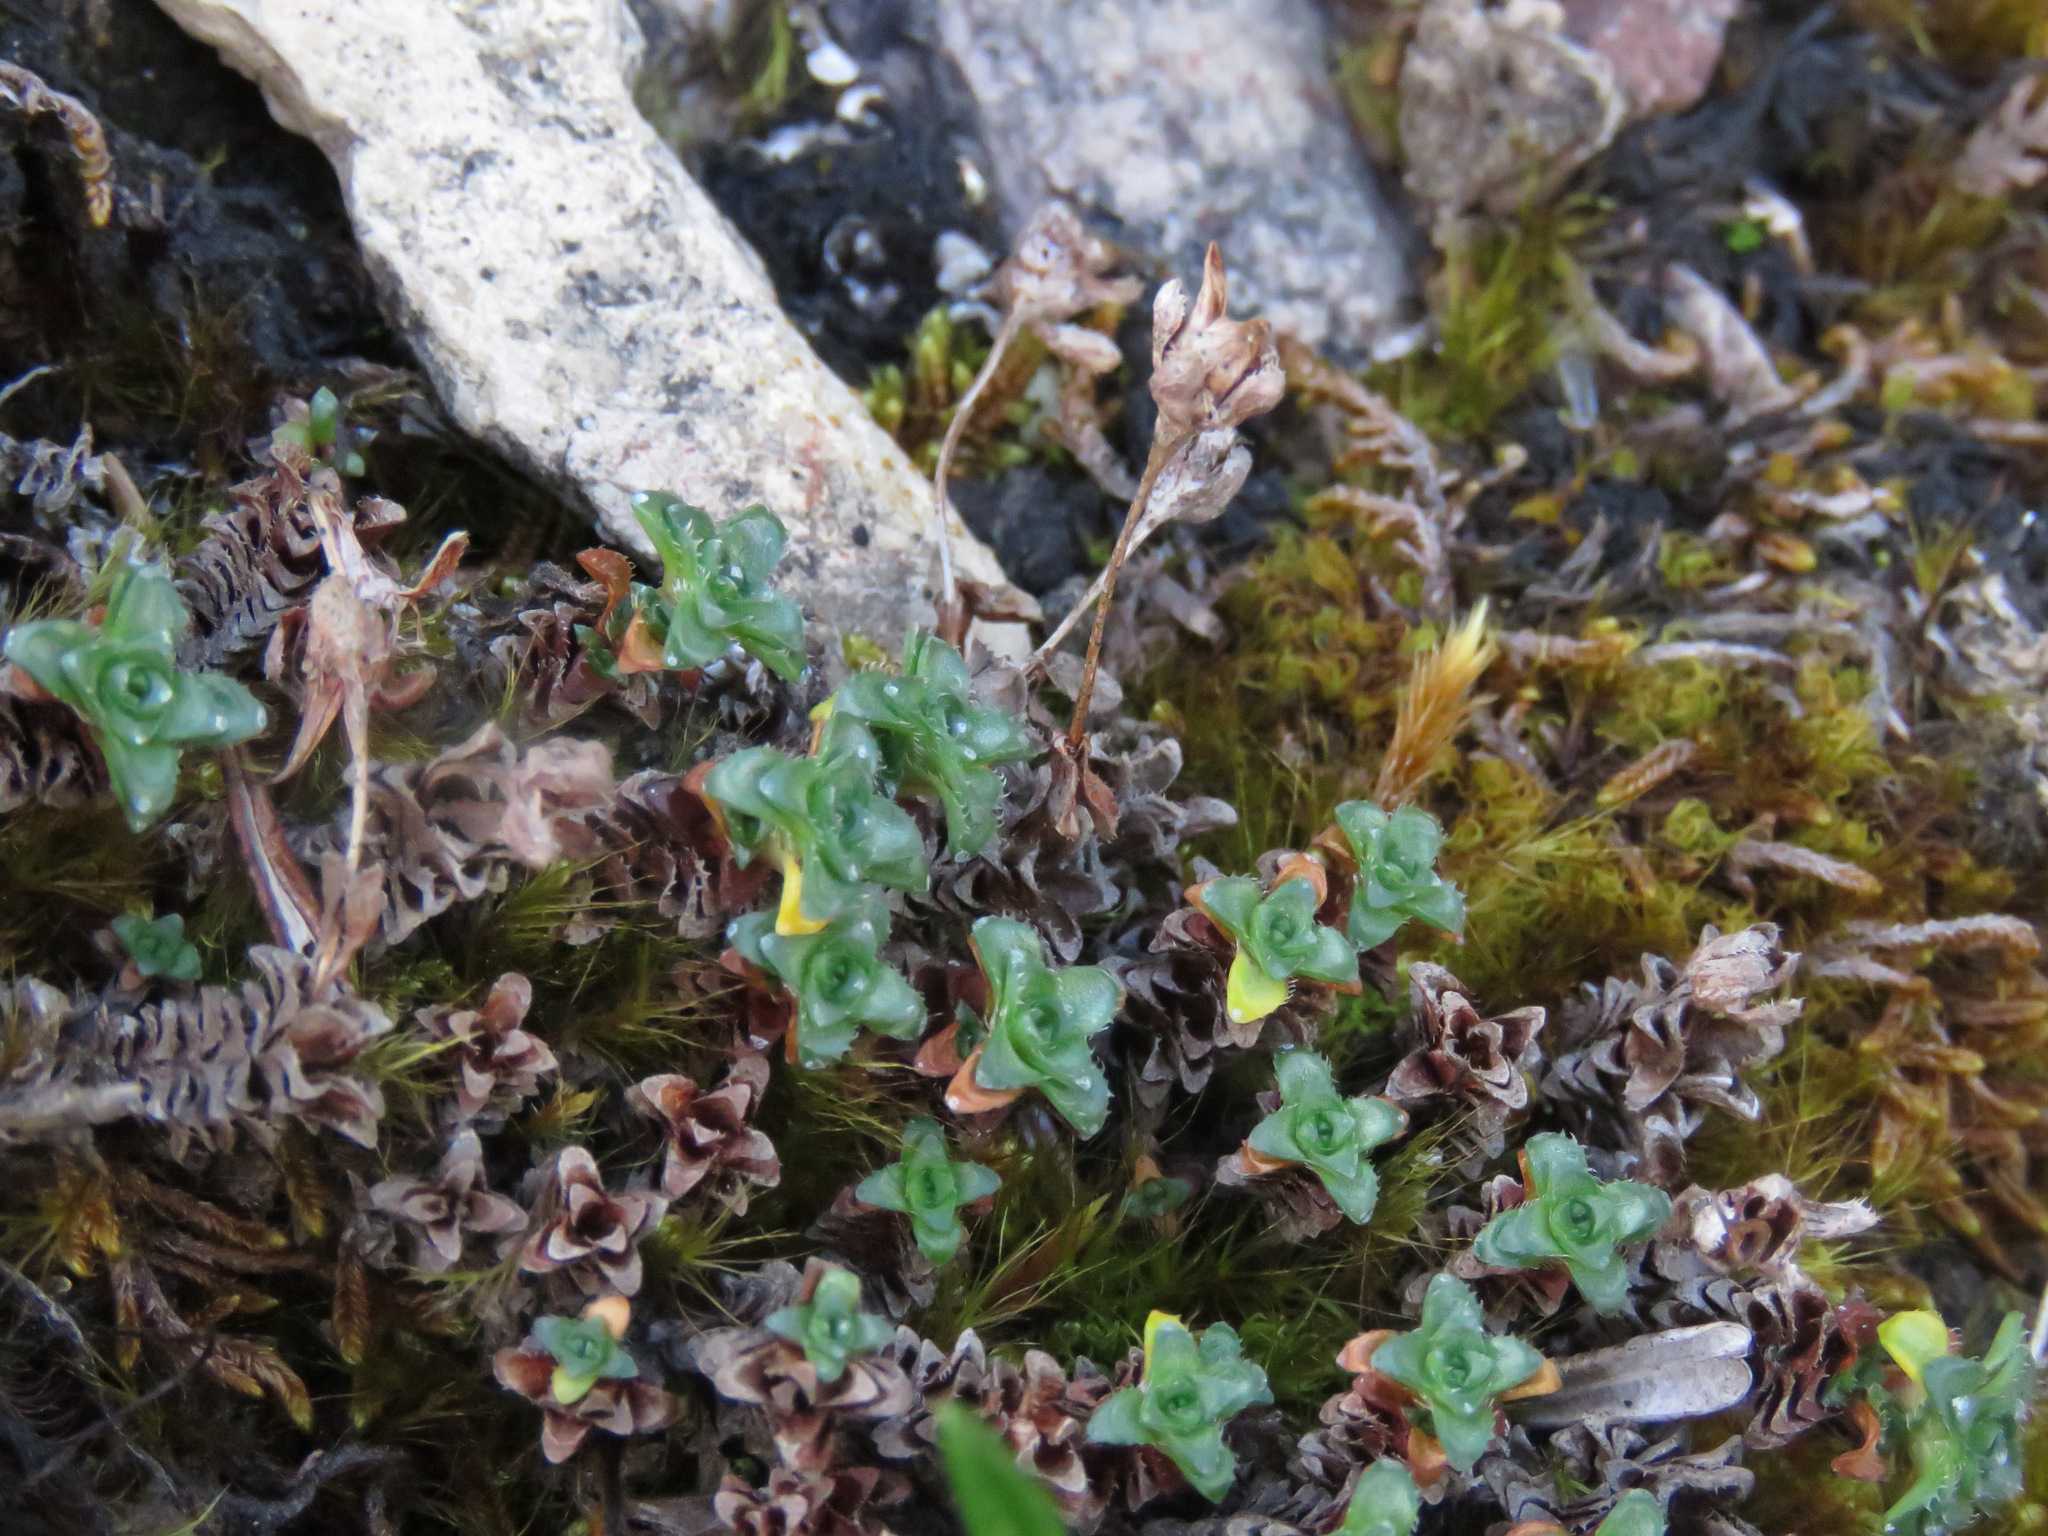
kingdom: Plantae
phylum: Tracheophyta
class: Magnoliopsida
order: Saxifragales
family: Saxifragaceae
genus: Saxifraga
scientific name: Saxifraga oppositifolia
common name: Purple saxifrage
